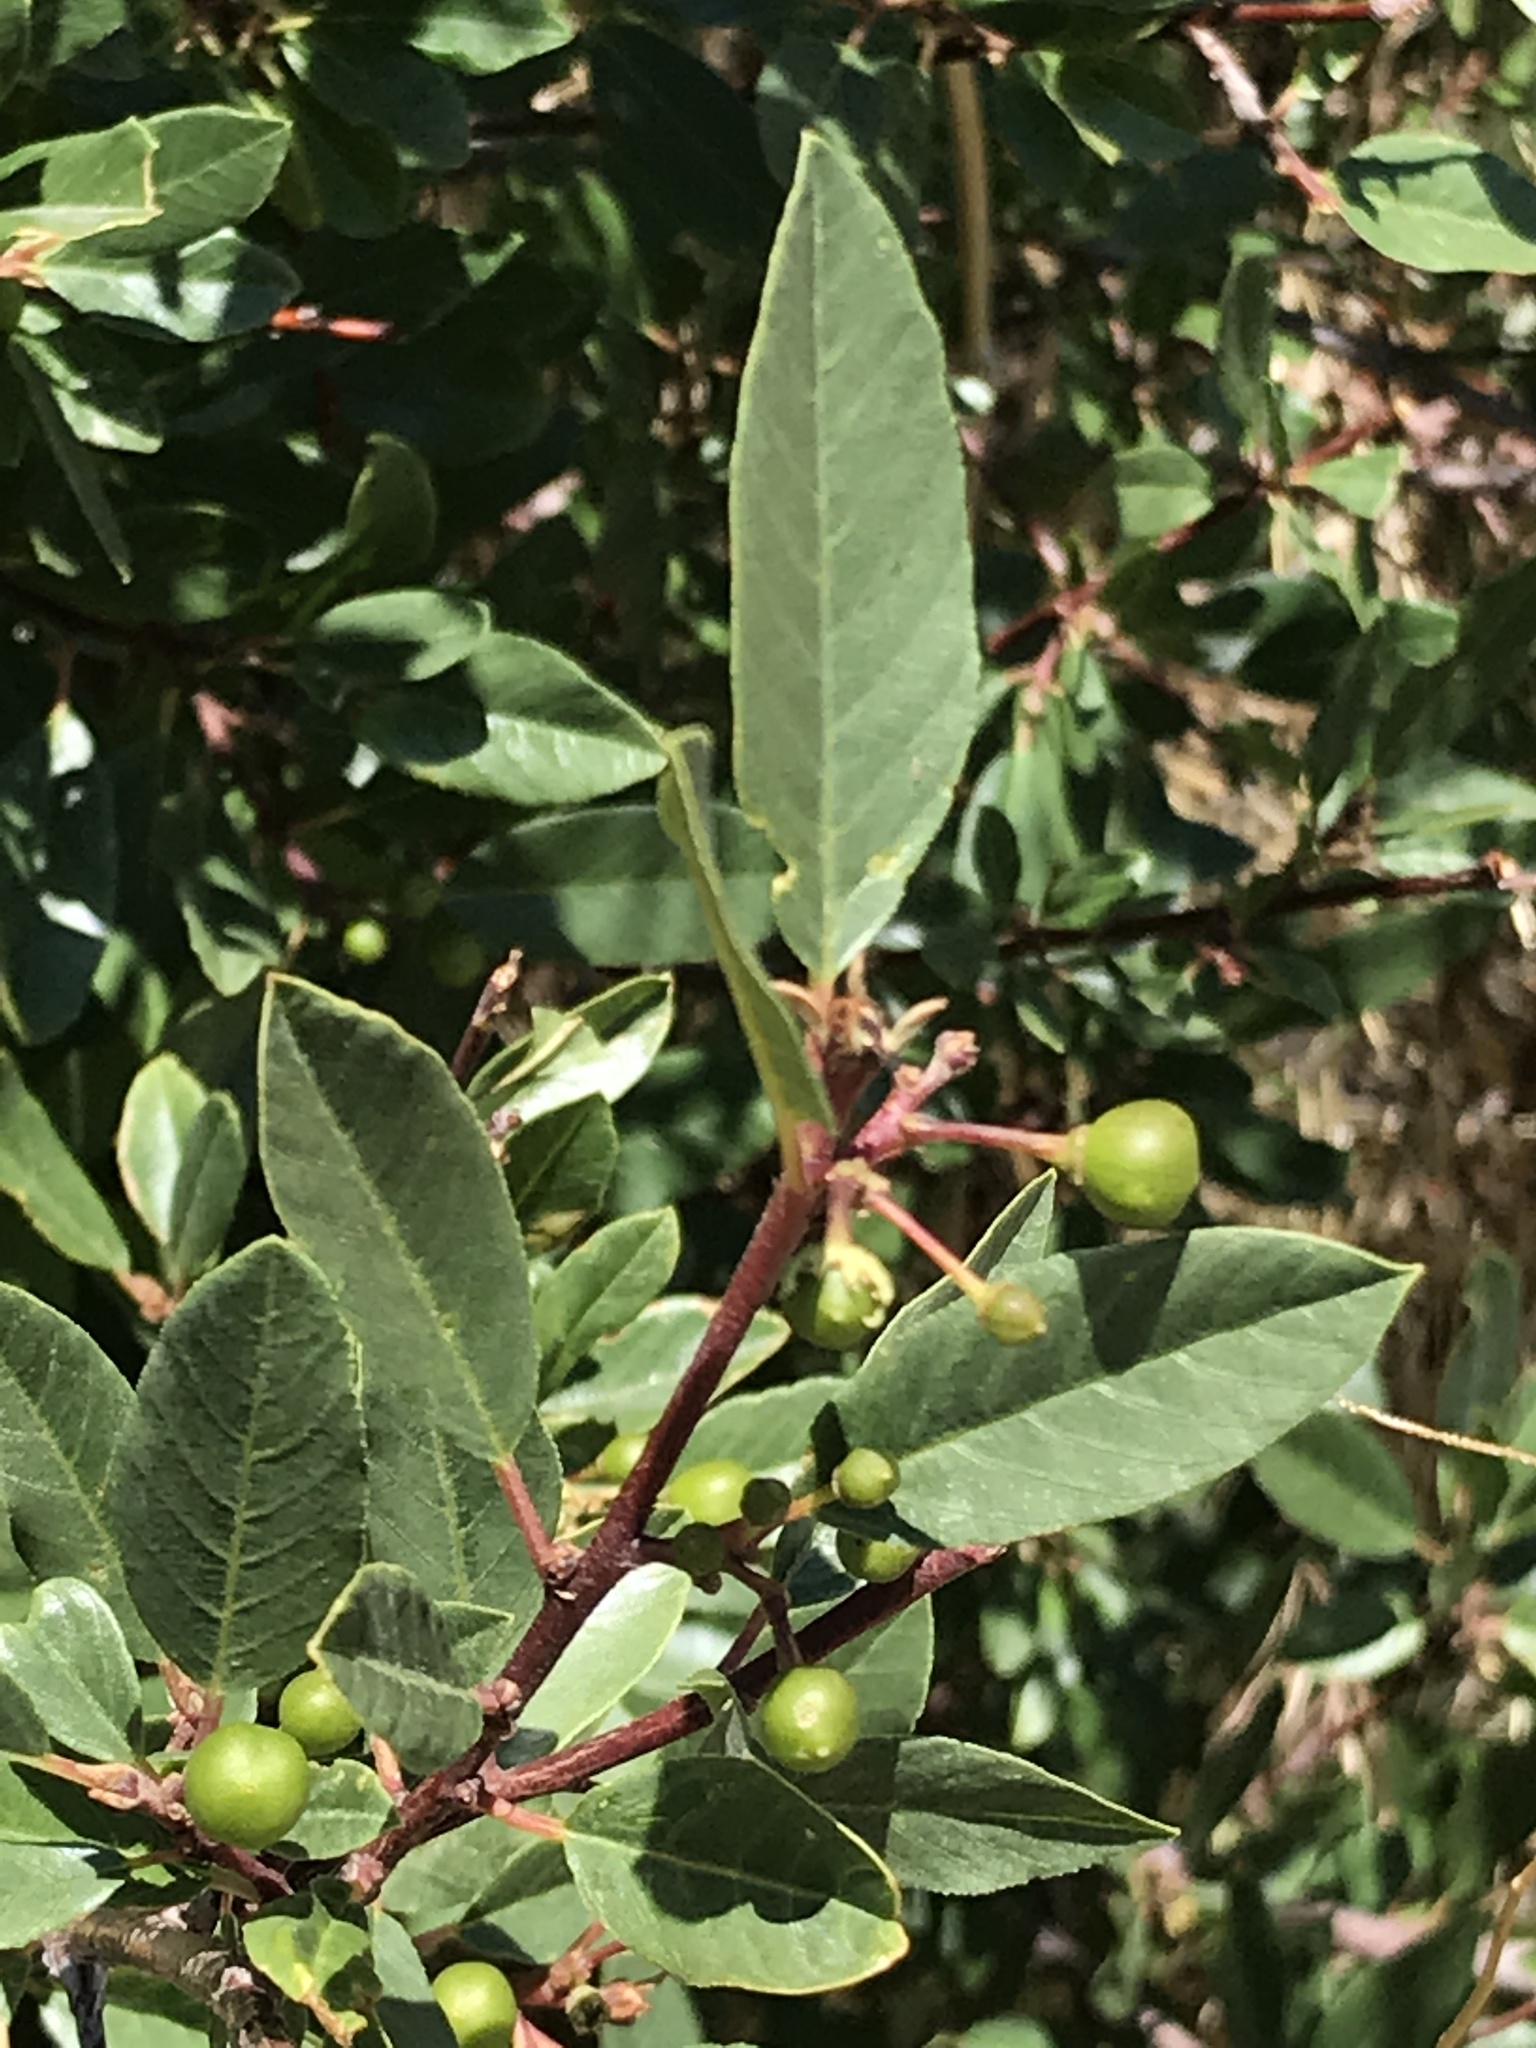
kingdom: Plantae
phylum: Tracheophyta
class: Magnoliopsida
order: Rosales
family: Rhamnaceae
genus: Frangula
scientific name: Frangula californica
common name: California buckthorn
